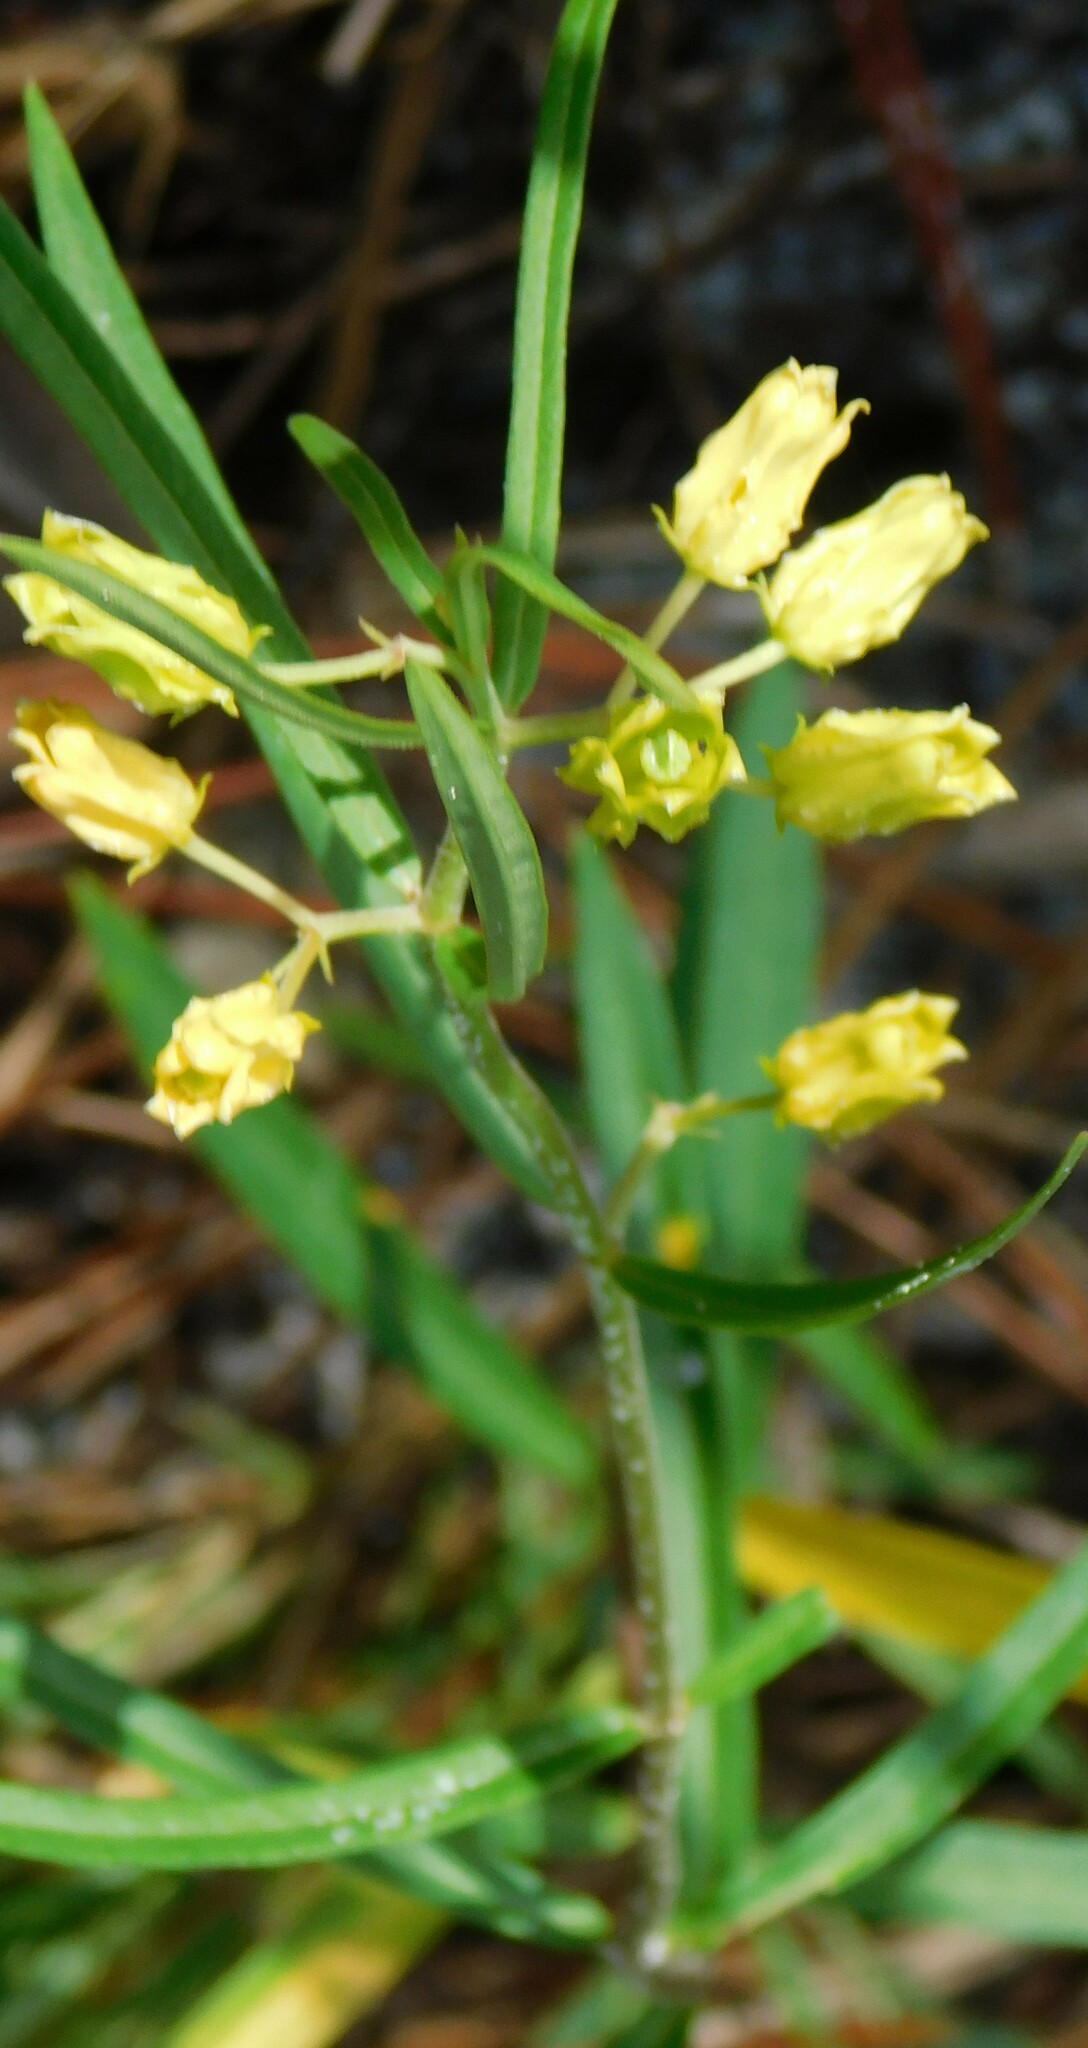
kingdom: Plantae
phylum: Tracheophyta
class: Magnoliopsida
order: Gentianales
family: Apocynaceae
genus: Asclepias
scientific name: Asclepias pedicellata
